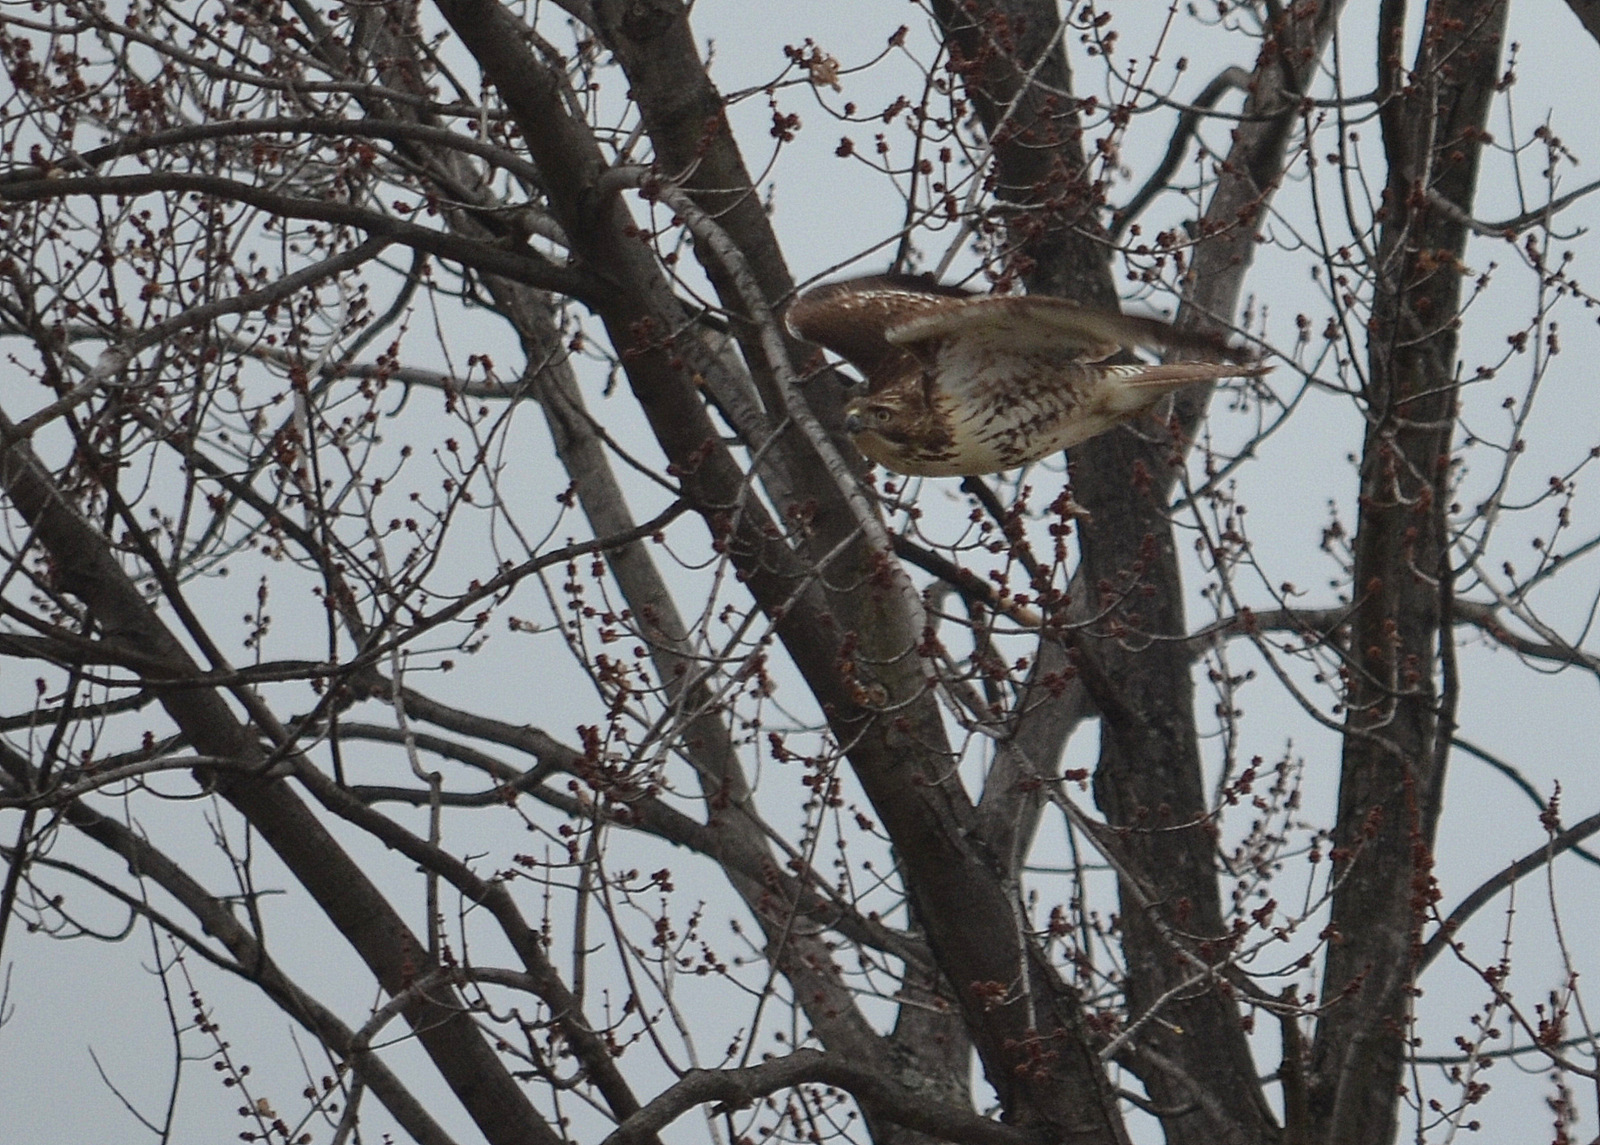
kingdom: Animalia
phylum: Chordata
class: Aves
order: Accipitriformes
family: Accipitridae
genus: Buteo
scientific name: Buteo jamaicensis
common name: Red-tailed hawk
